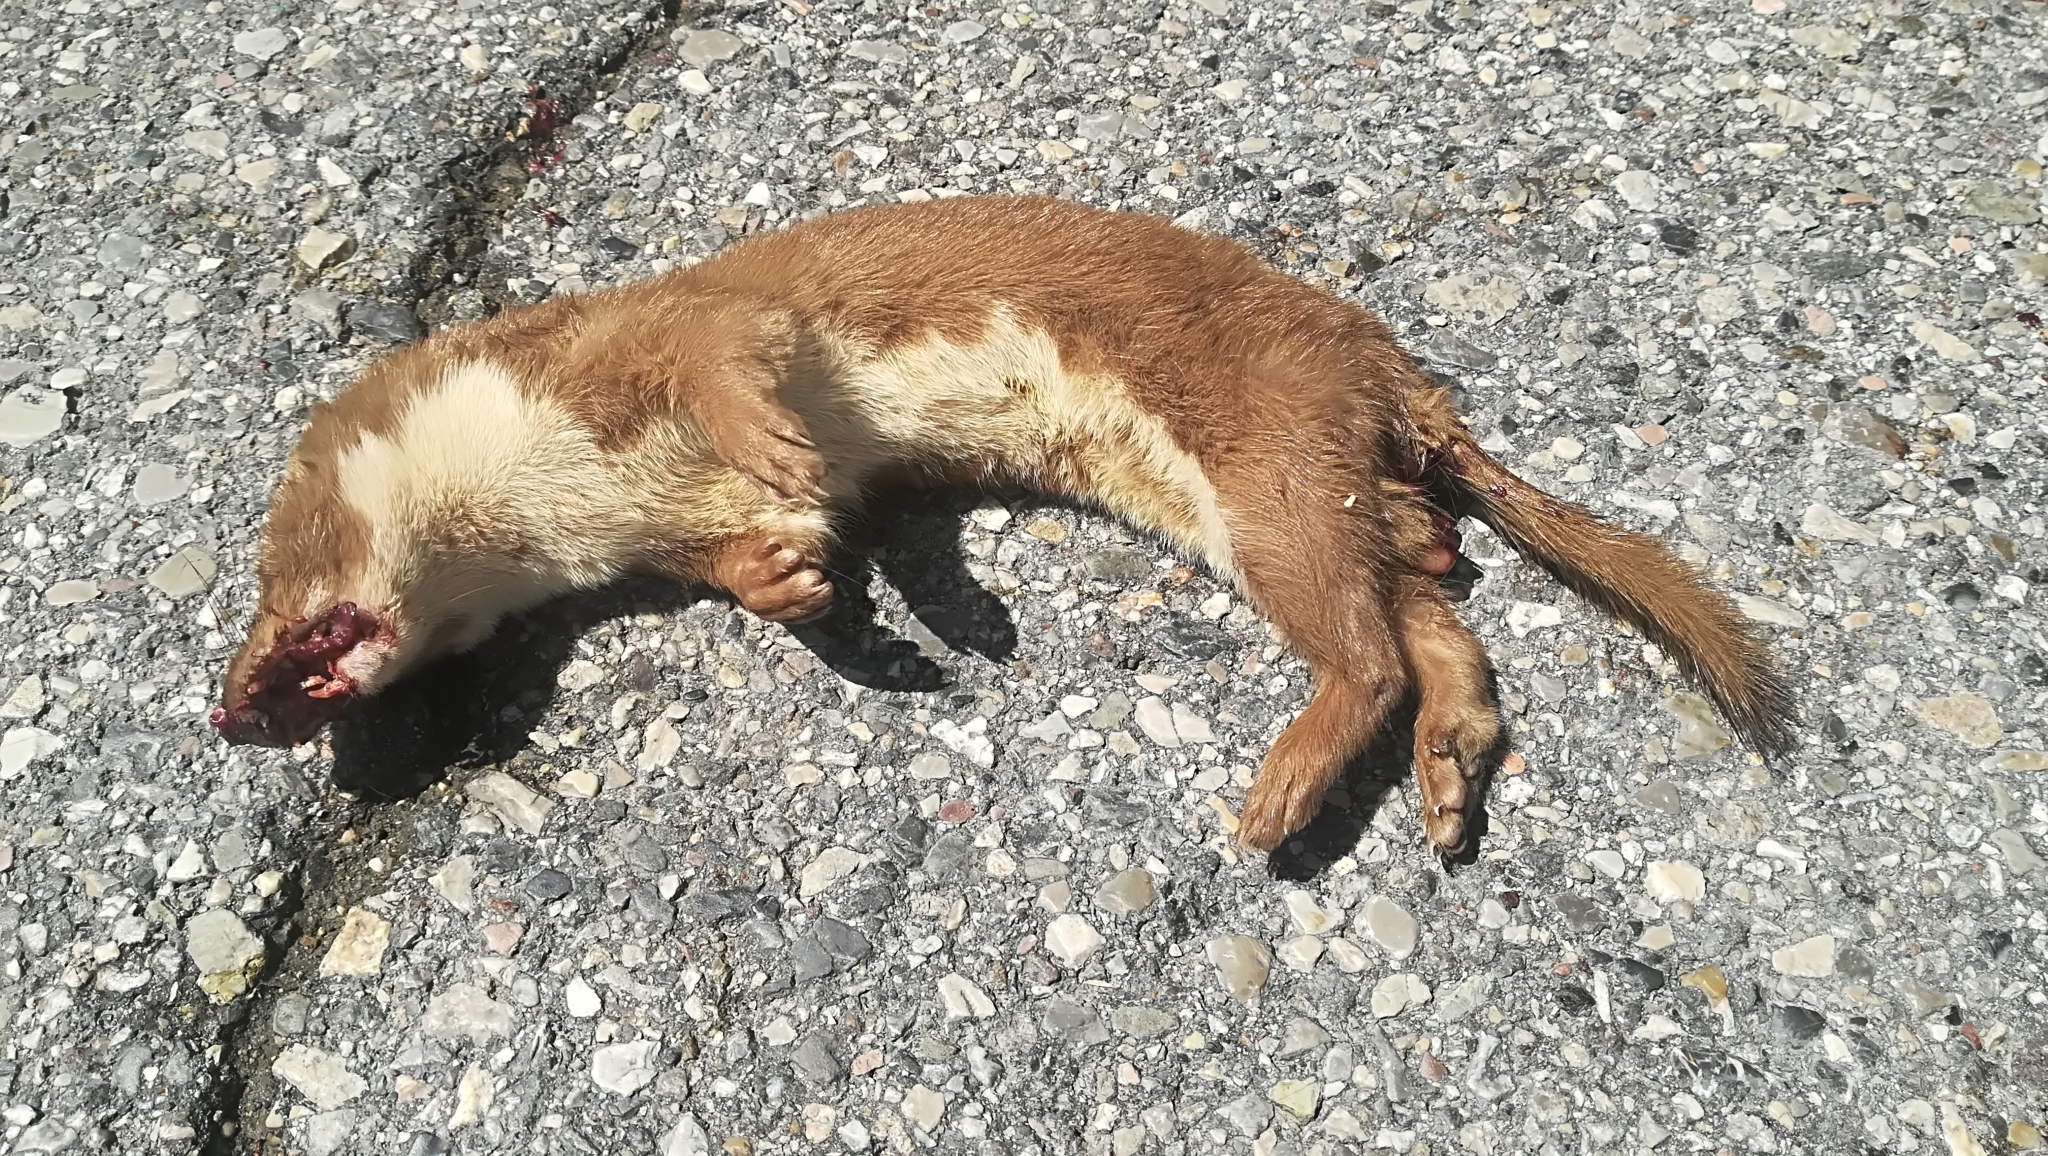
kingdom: Animalia
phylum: Chordata
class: Mammalia
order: Carnivora
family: Mustelidae
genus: Mustela
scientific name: Mustela nivalis
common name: Least weasel
